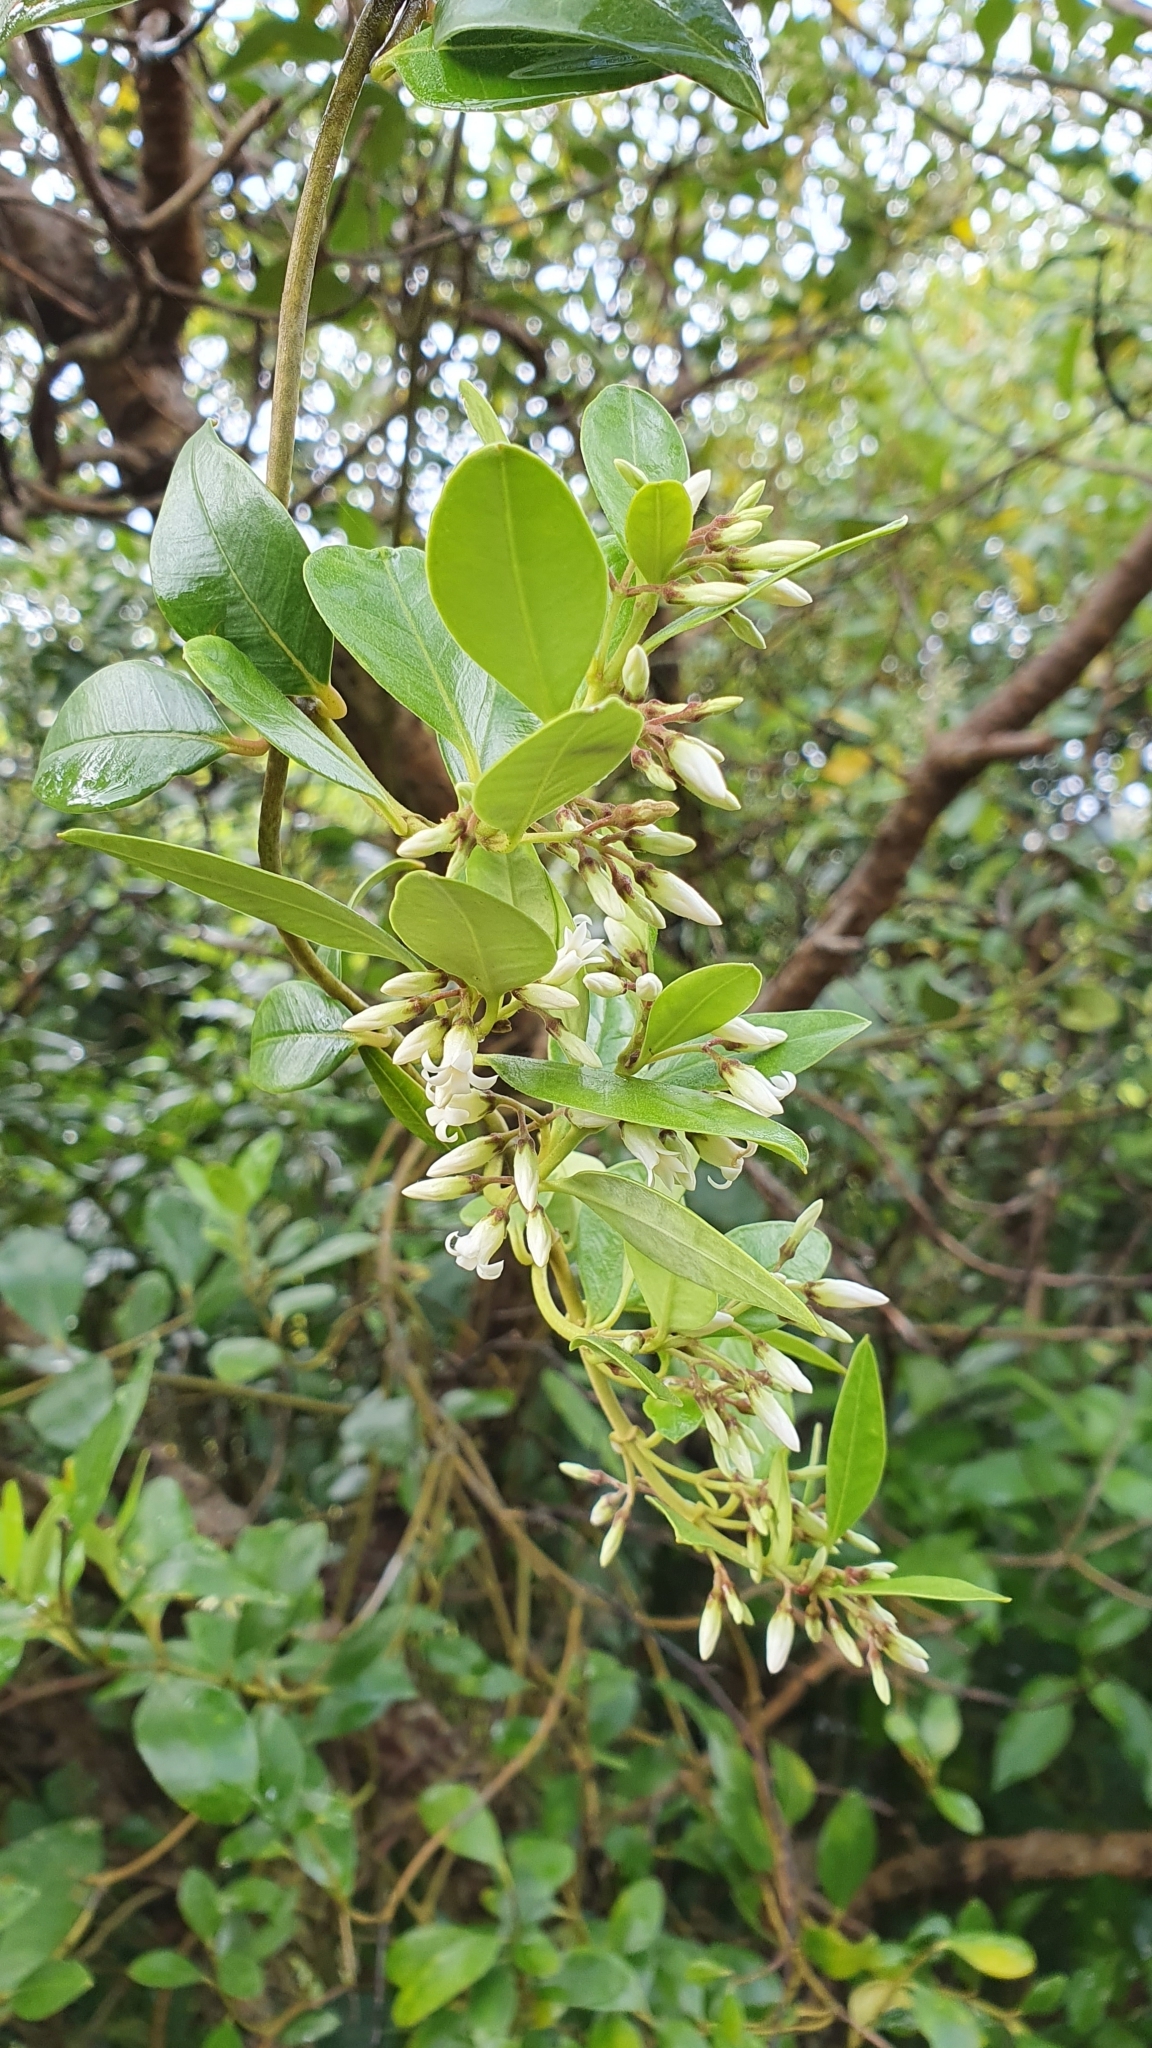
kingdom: Plantae
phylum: Tracheophyta
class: Magnoliopsida
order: Gentianales
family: Apocynaceae
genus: Parsonsia
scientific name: Parsonsia heterophylla
